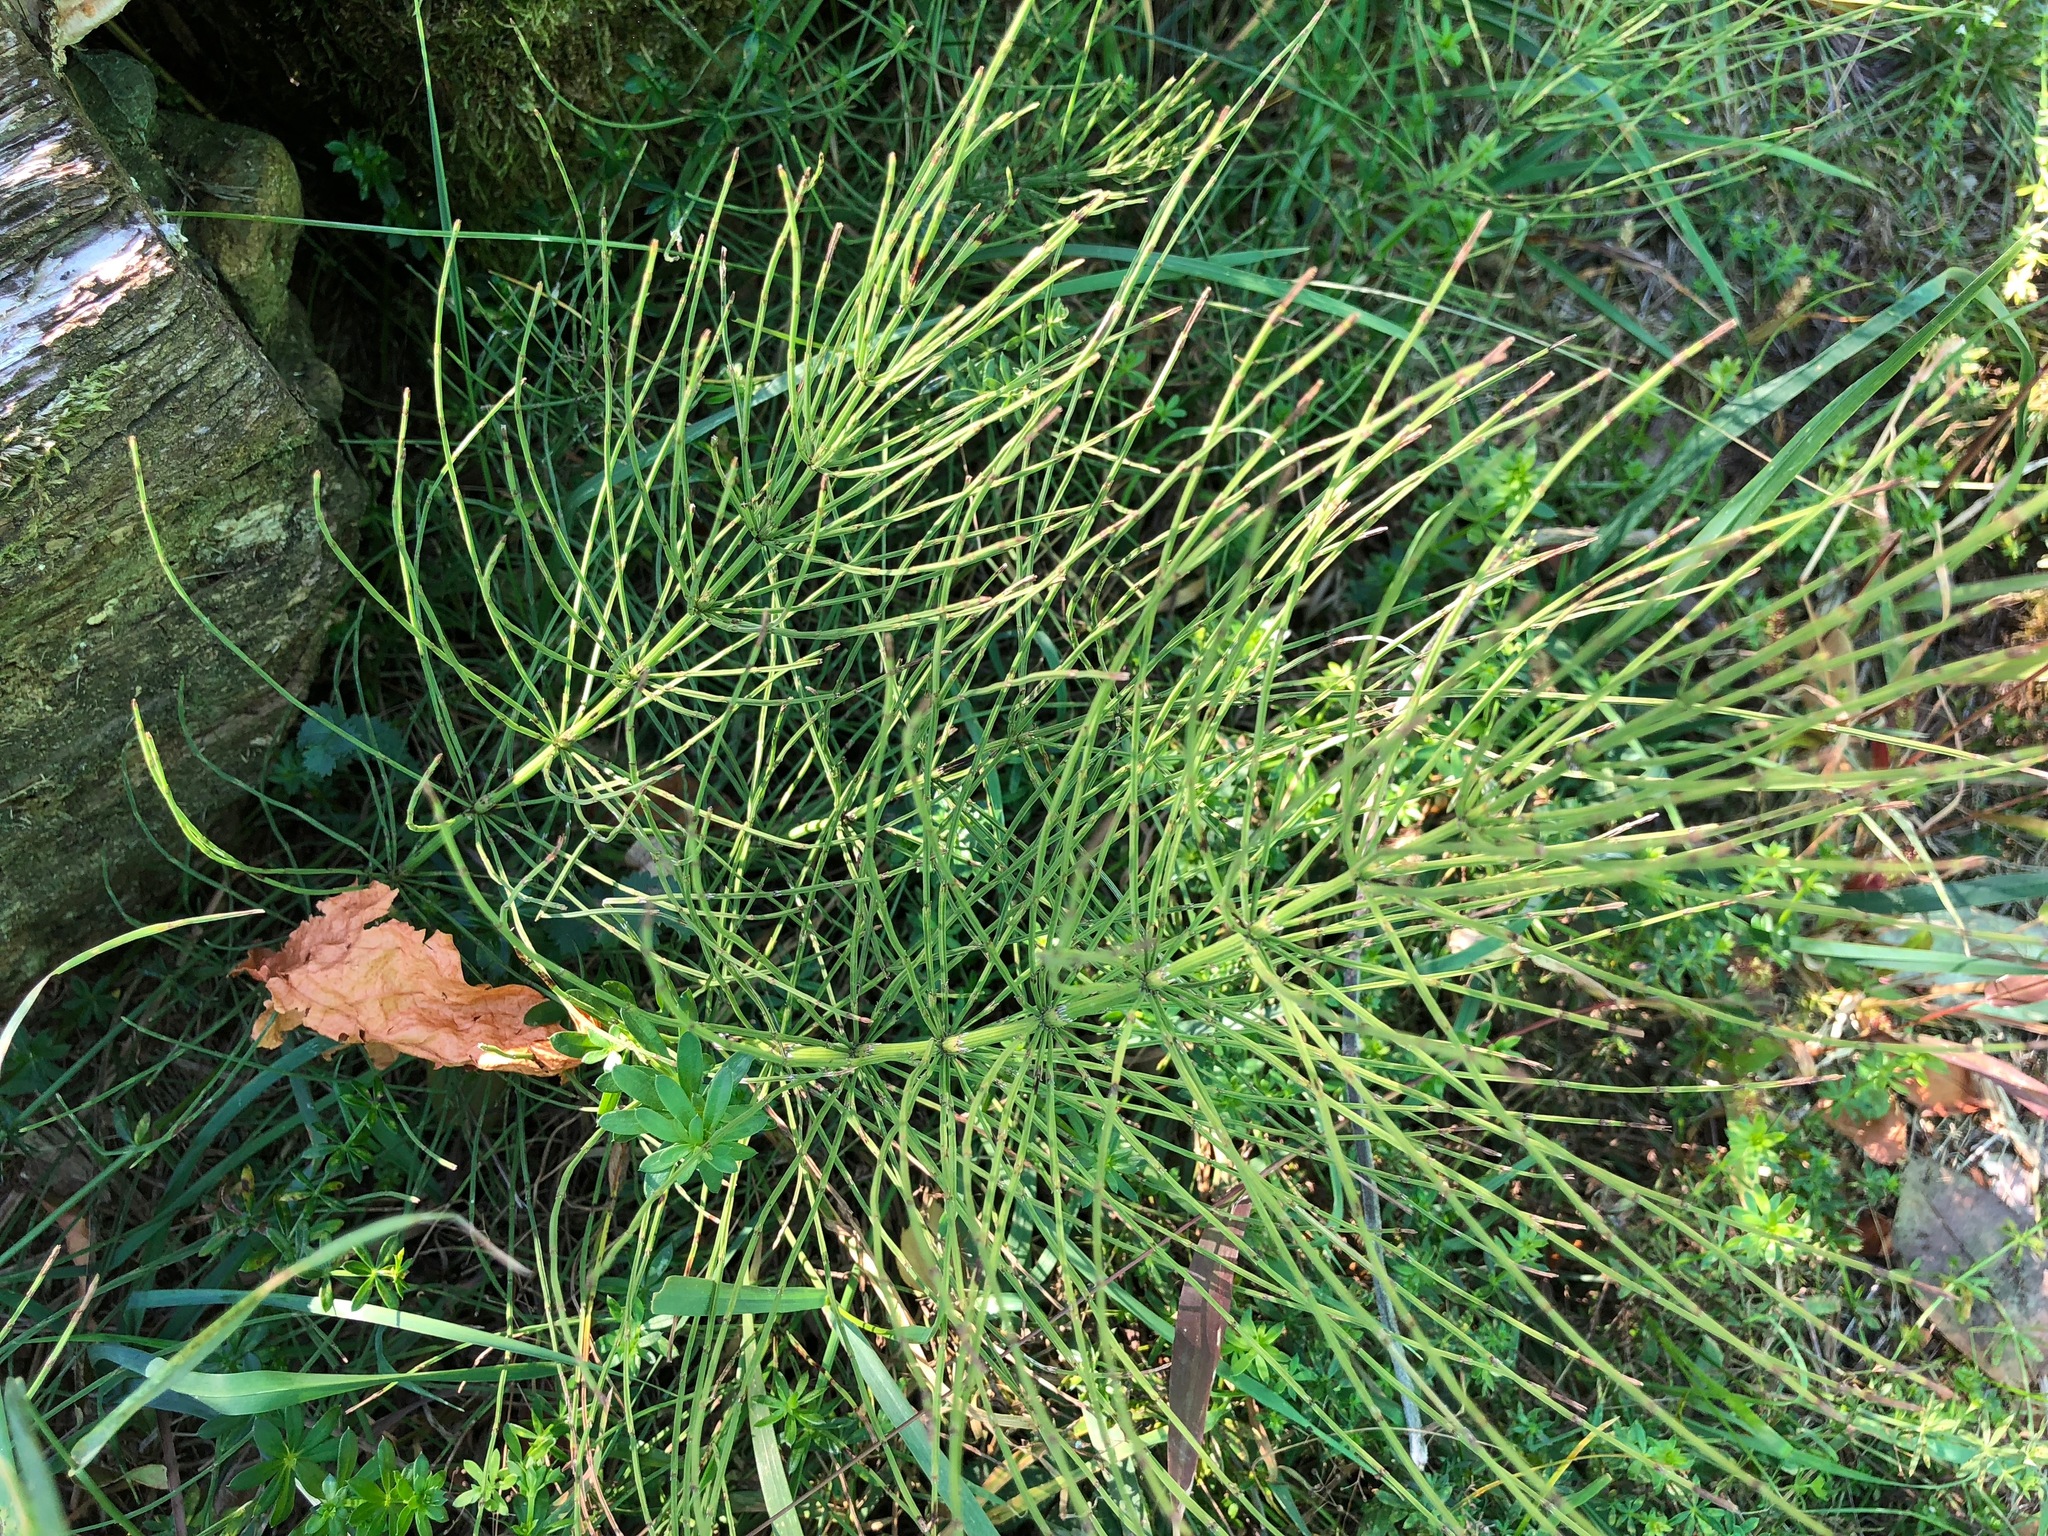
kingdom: Plantae
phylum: Tracheophyta
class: Polypodiopsida
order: Equisetales
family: Equisetaceae
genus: Equisetum
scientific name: Equisetum arvense
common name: Field horsetail
